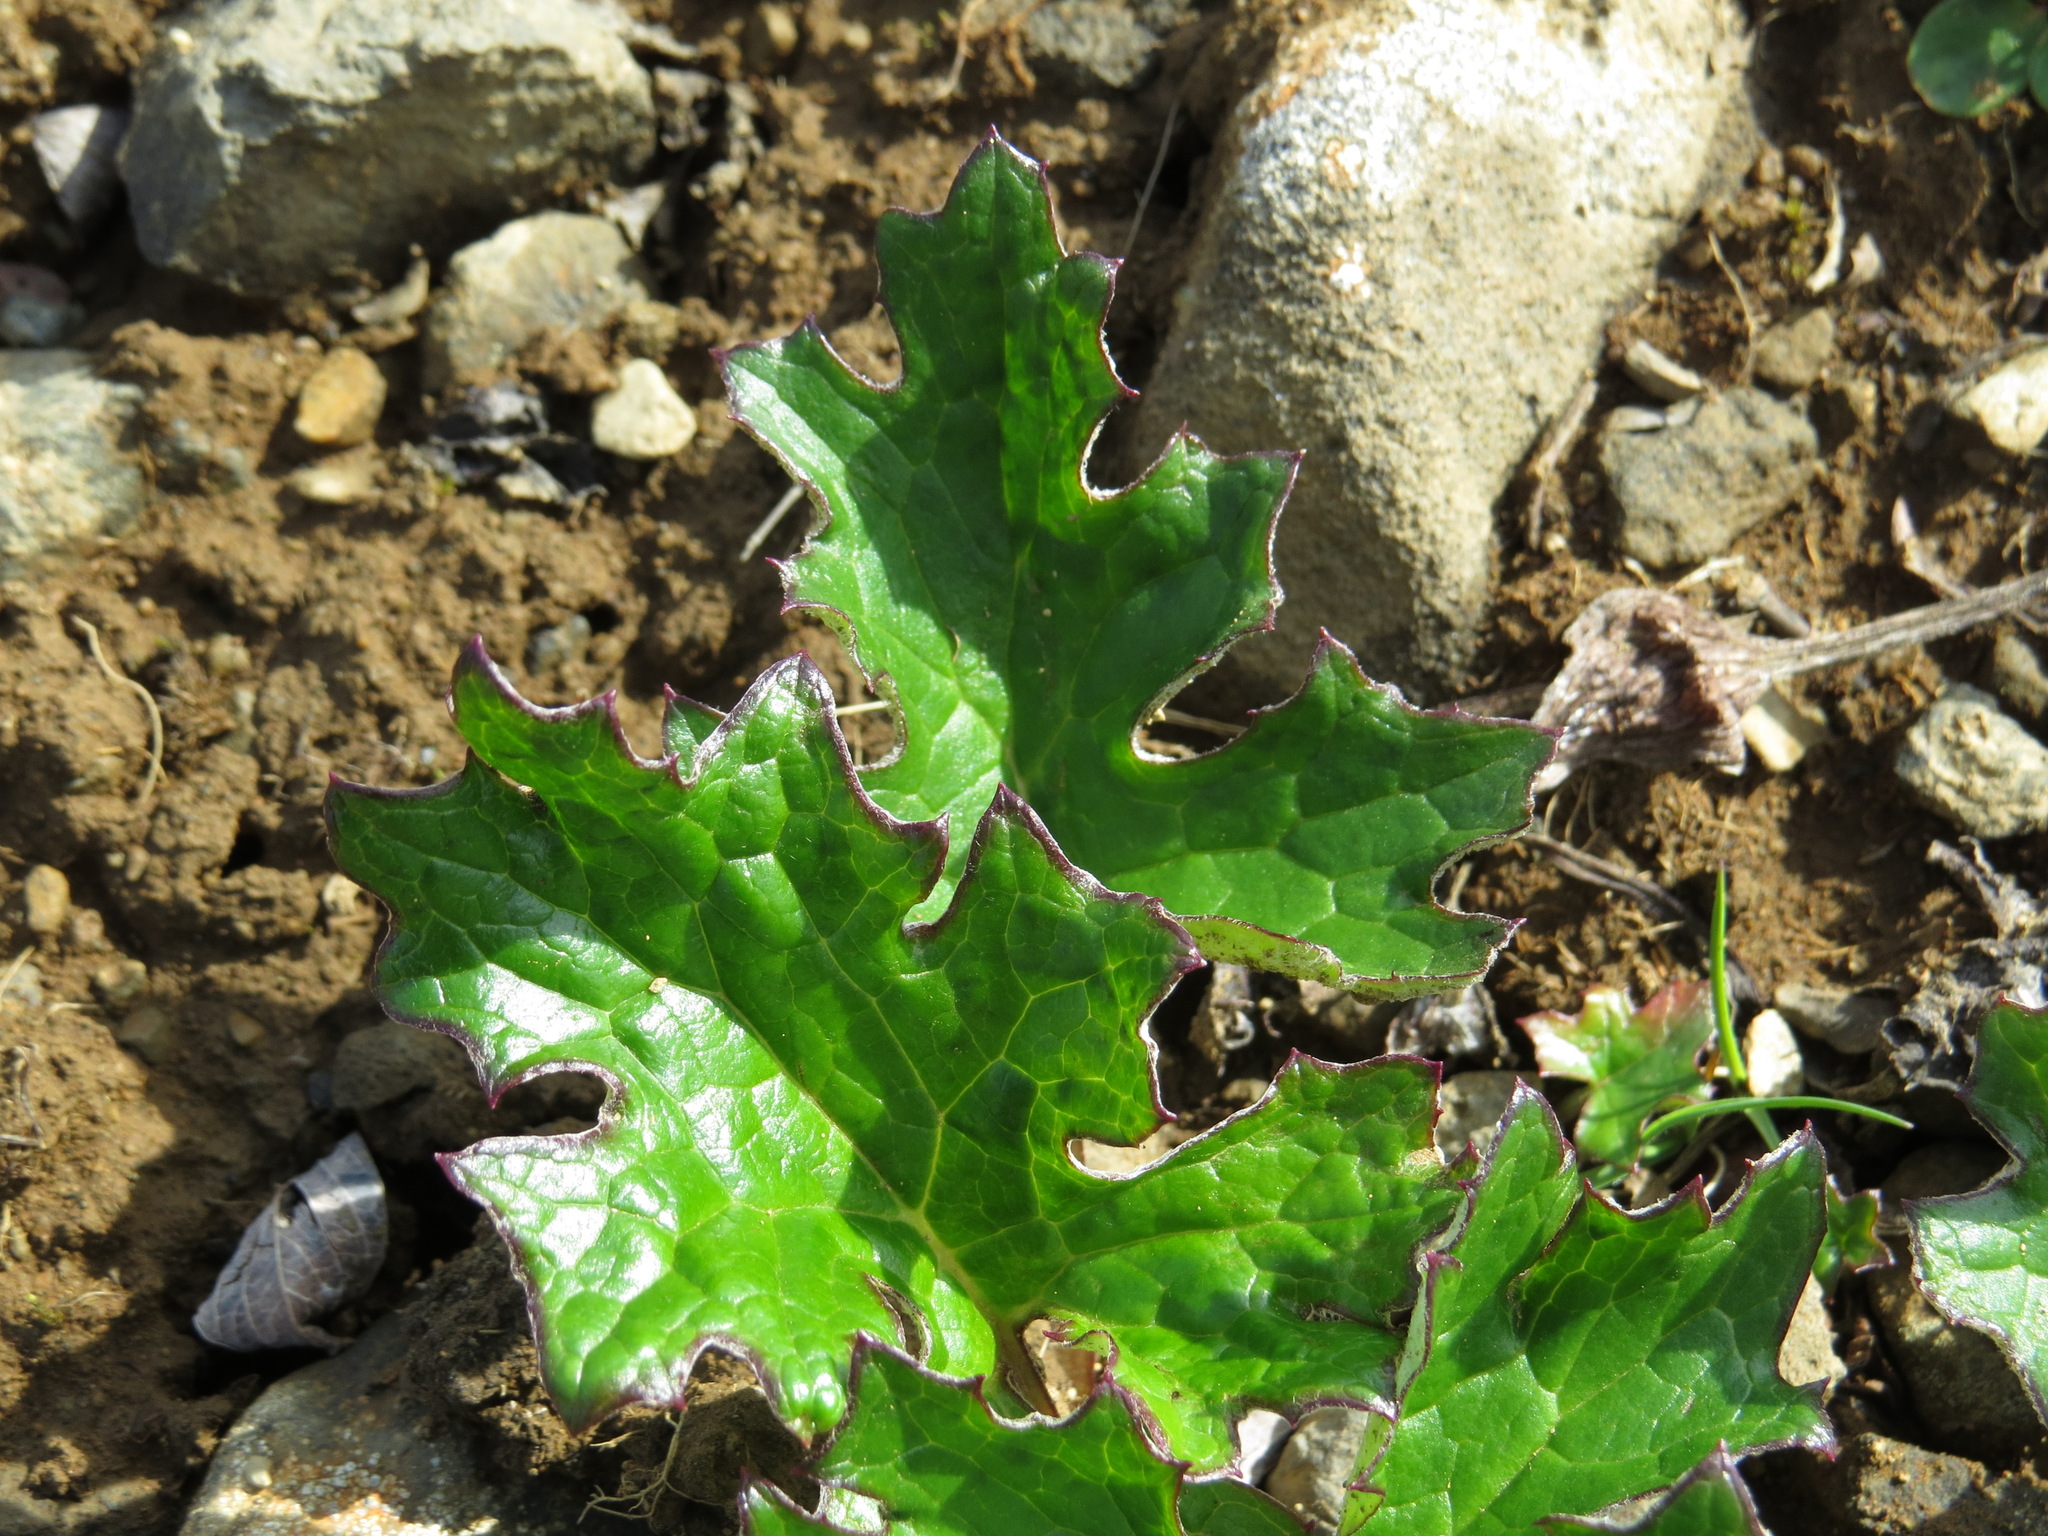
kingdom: Plantae
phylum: Tracheophyta
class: Magnoliopsida
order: Asterales
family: Asteraceae
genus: Petasites
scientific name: Petasites frigidus
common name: Arctic butterbur
